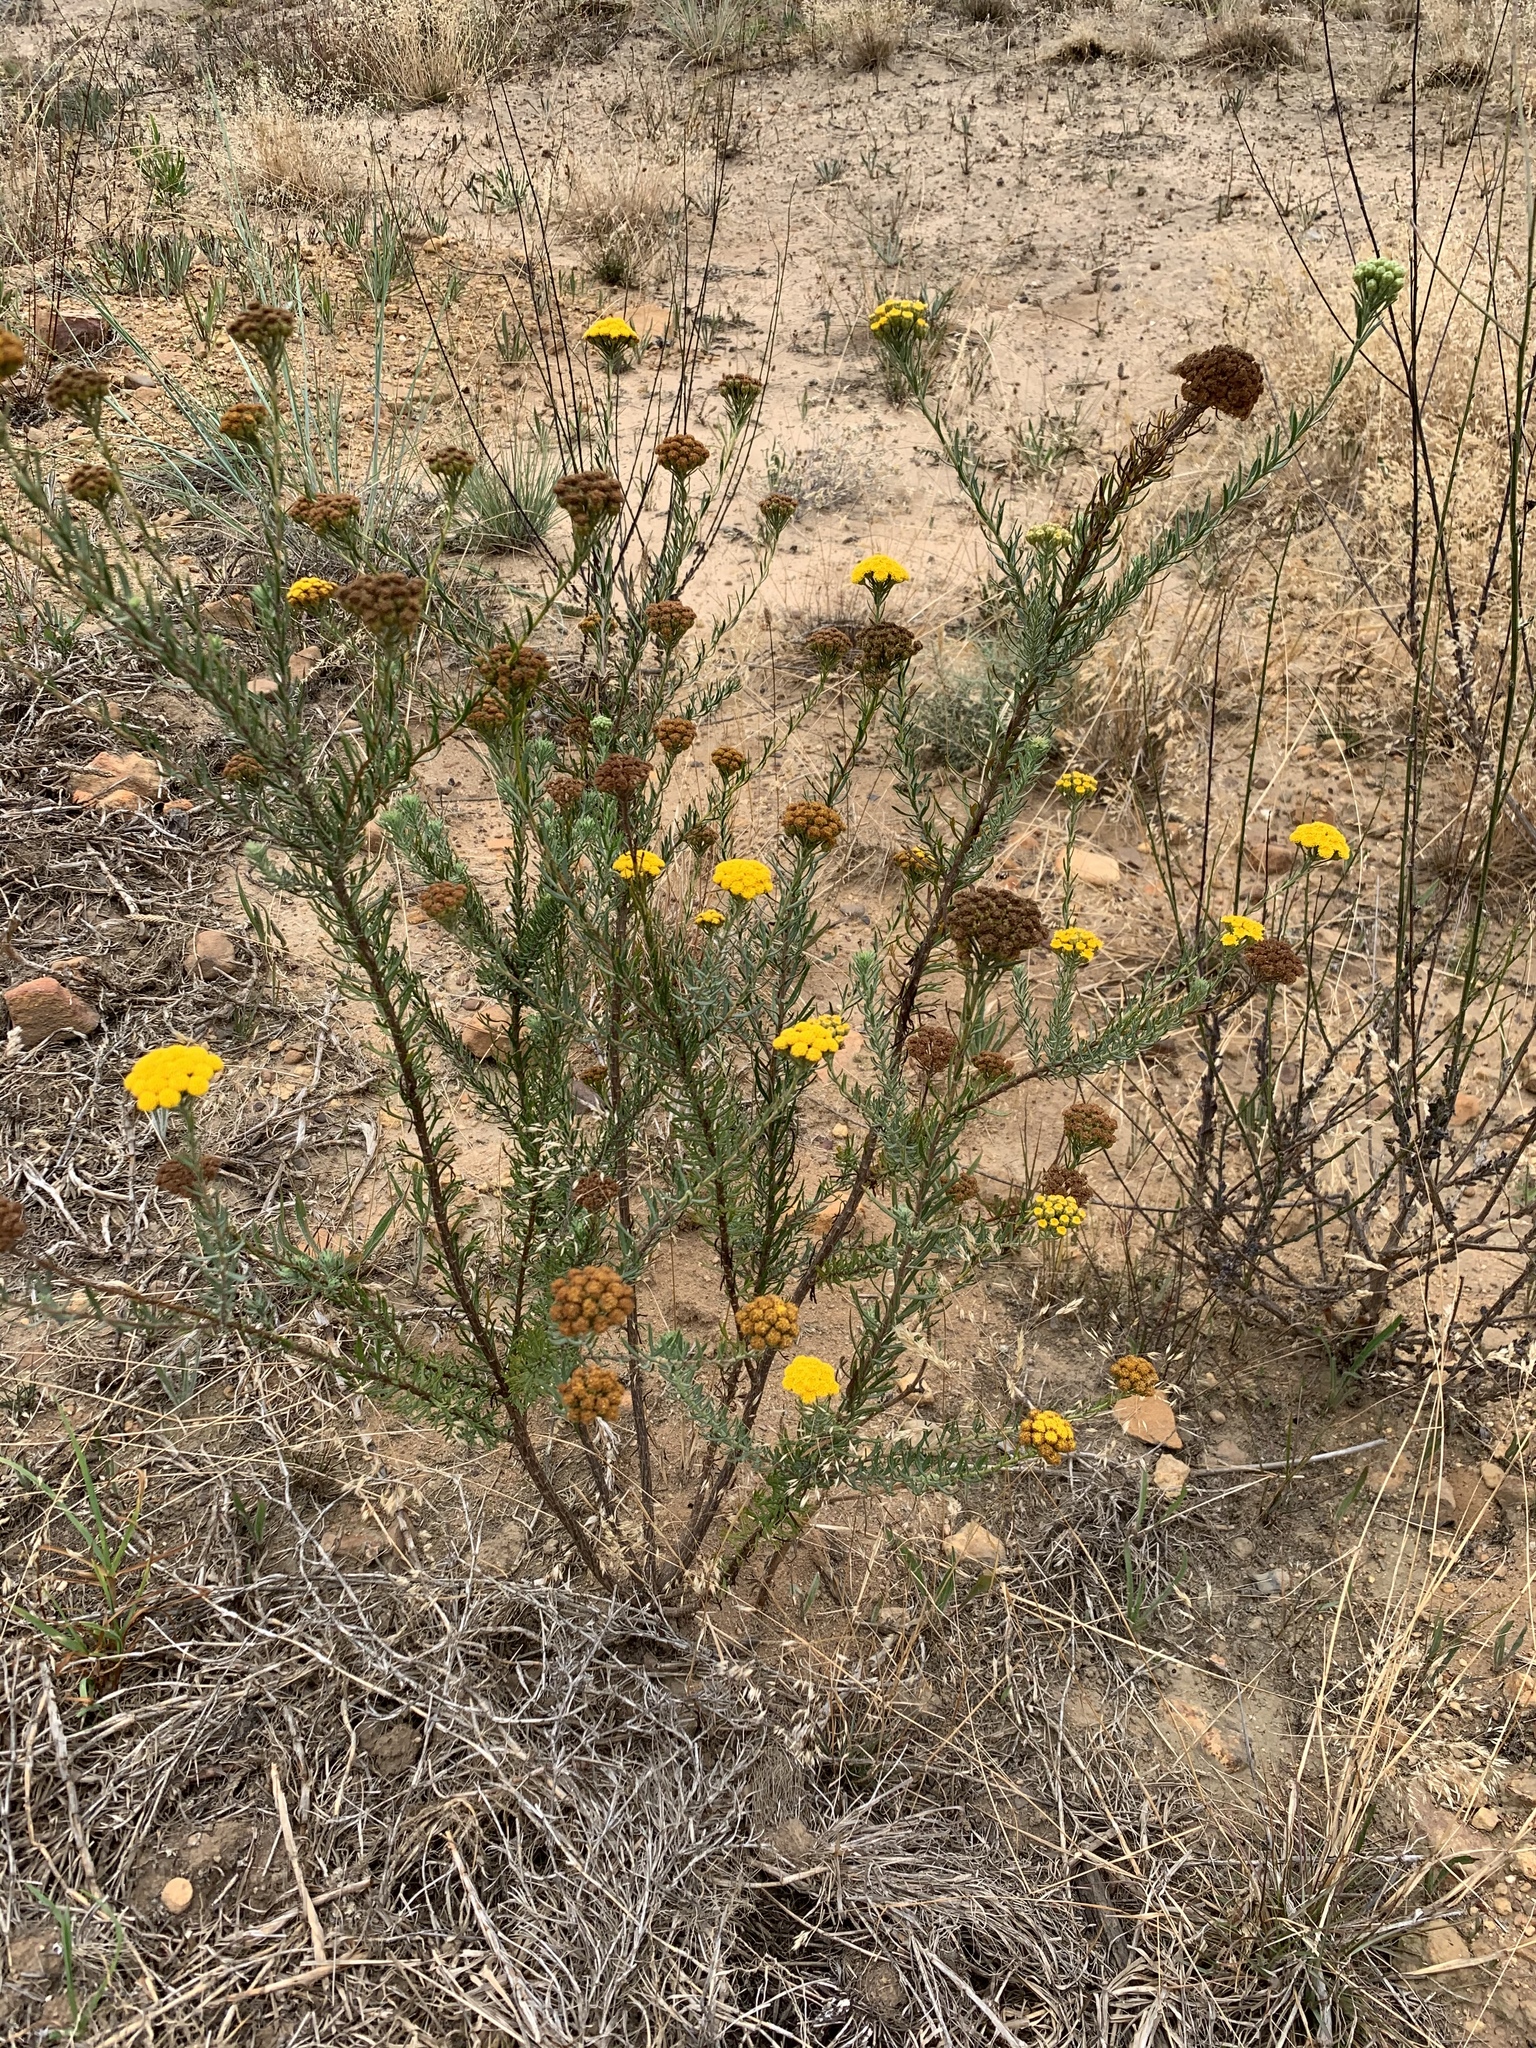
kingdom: Plantae
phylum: Tracheophyta
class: Magnoliopsida
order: Asterales
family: Asteraceae
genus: Athanasia
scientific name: Athanasia trifurcata
